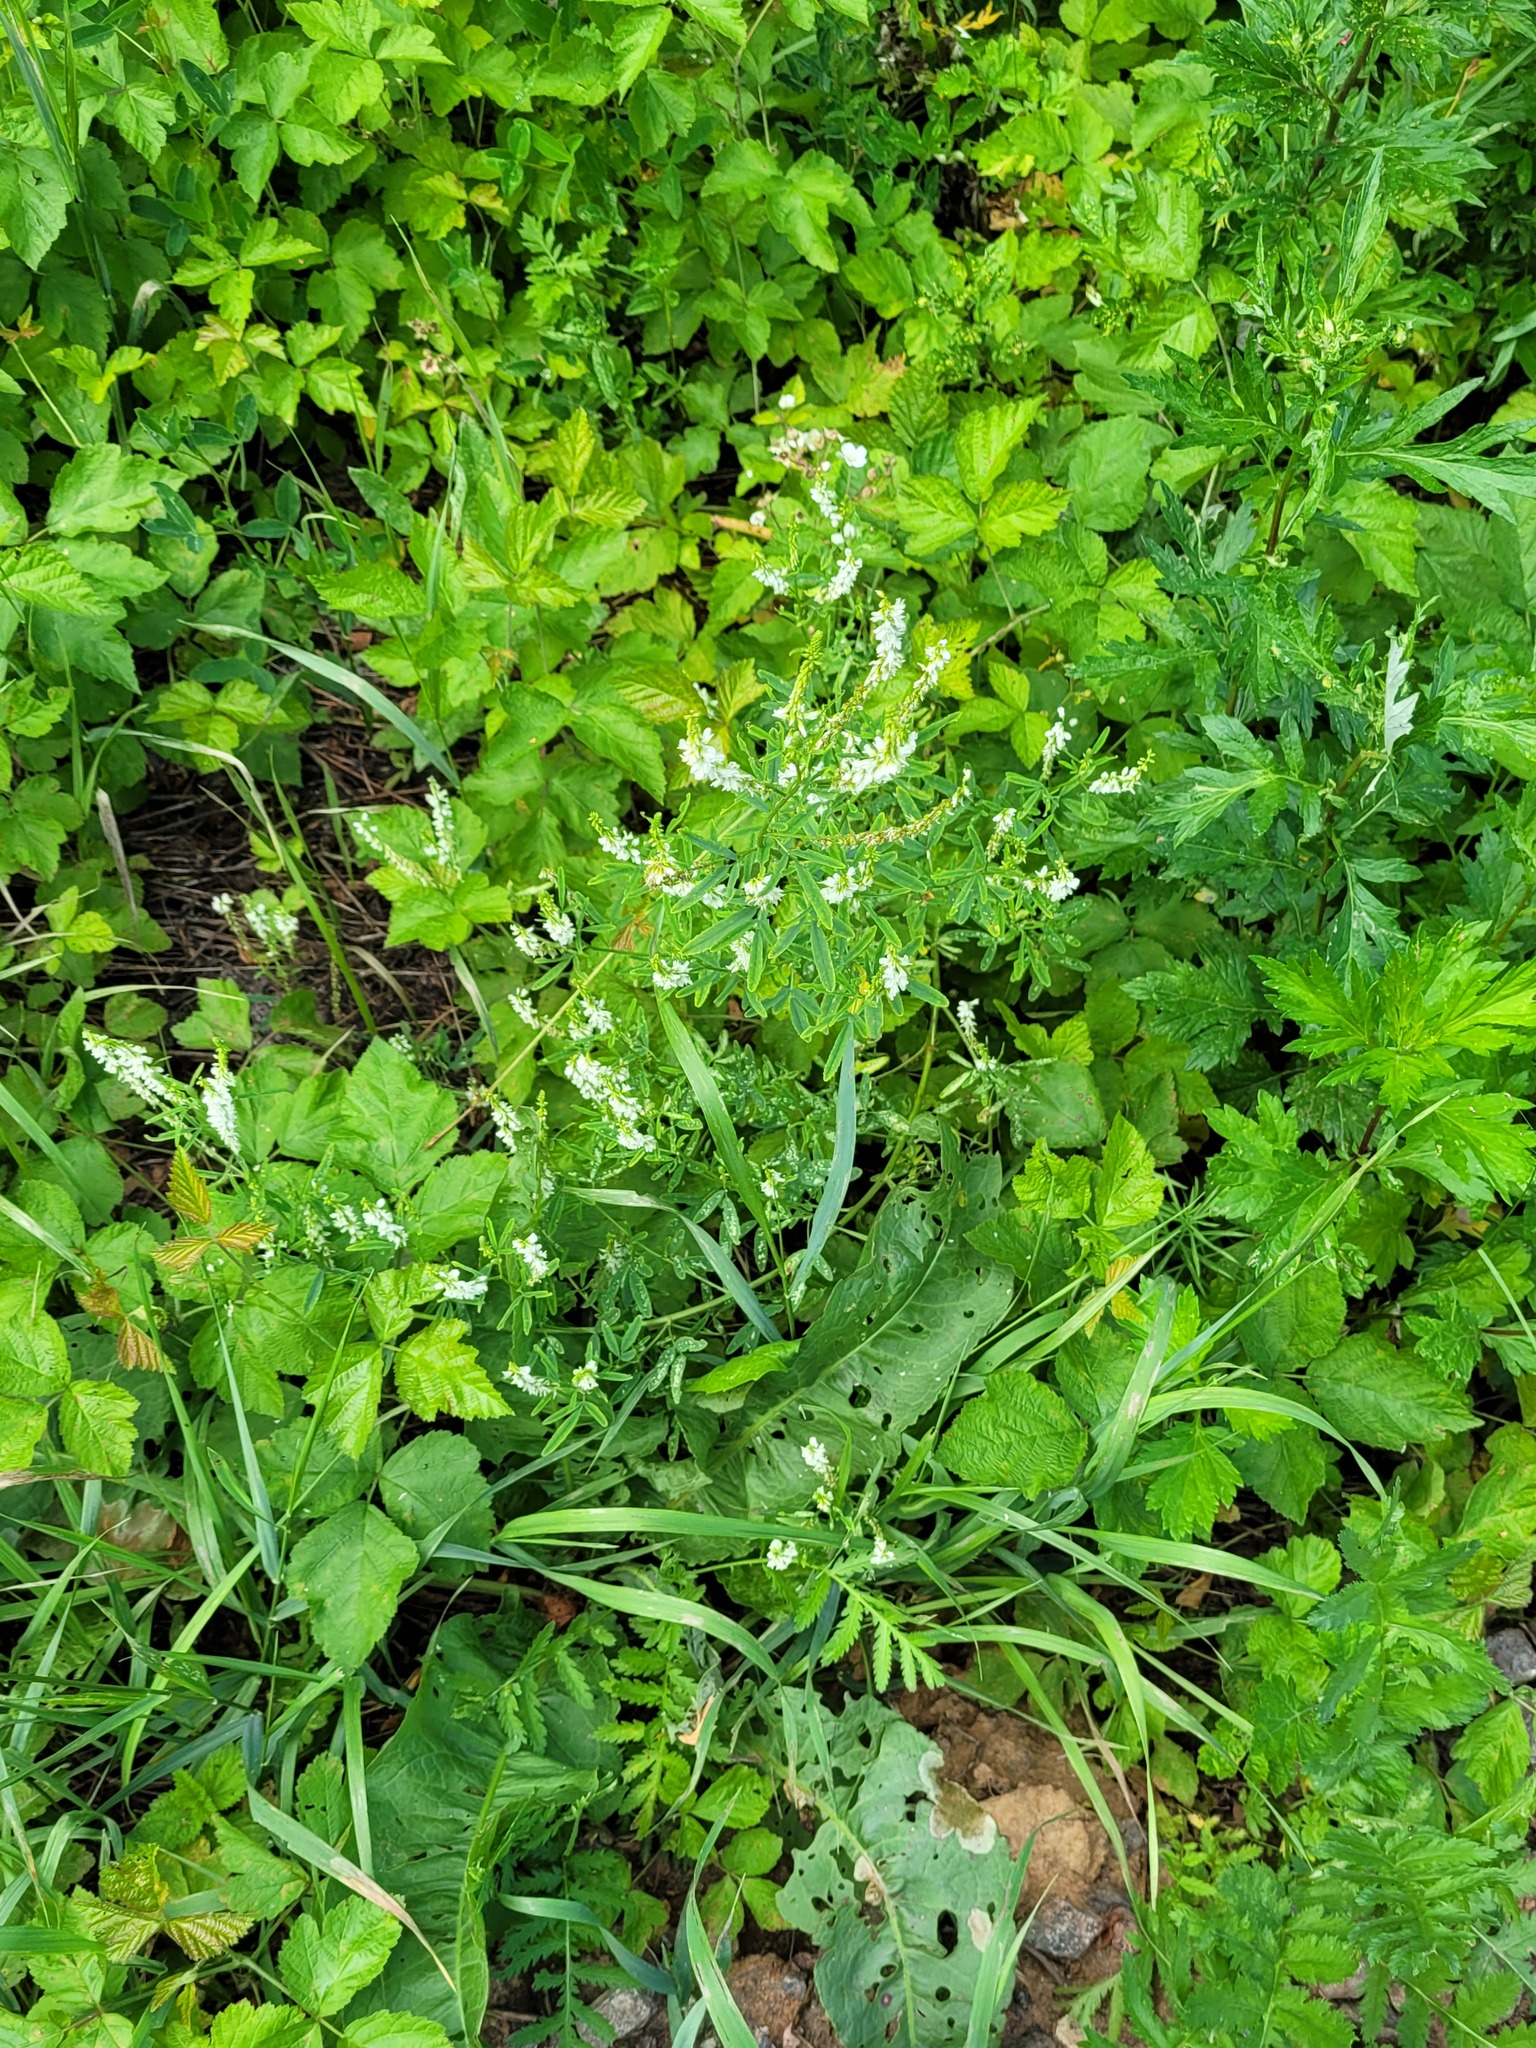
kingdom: Plantae
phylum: Tracheophyta
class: Magnoliopsida
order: Fabales
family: Fabaceae
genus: Melilotus
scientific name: Melilotus albus
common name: White melilot
